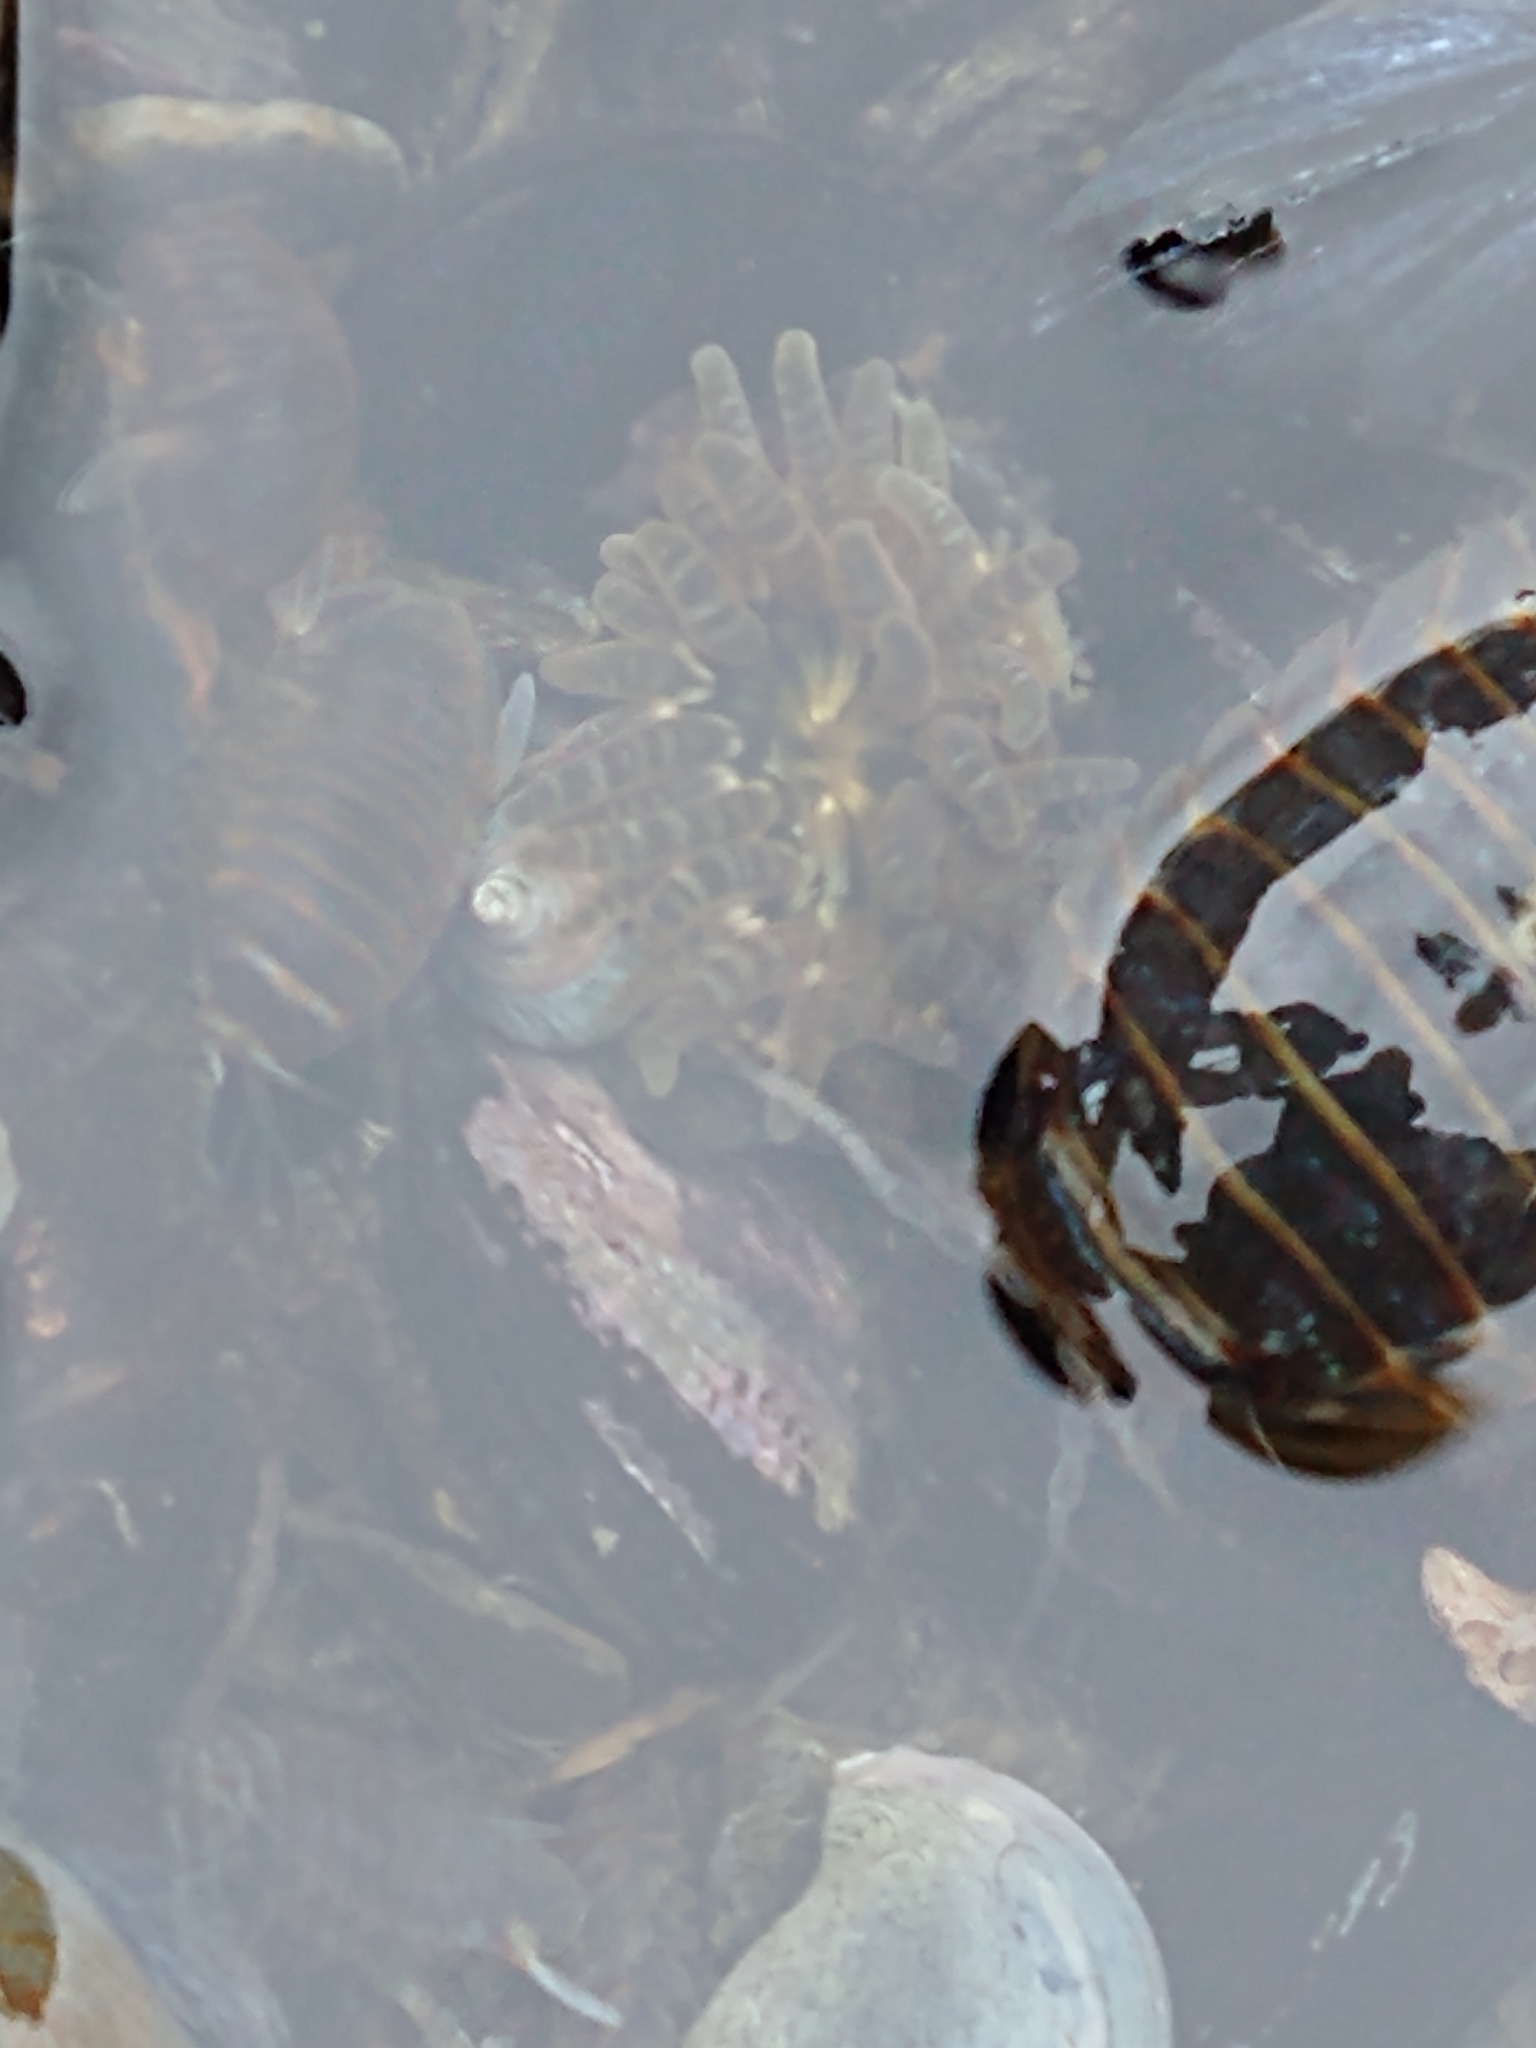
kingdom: Animalia
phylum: Cnidaria
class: Anthozoa
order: Actiniaria
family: Actiniidae
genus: Parantheopsis
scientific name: Parantheopsis cruentata
